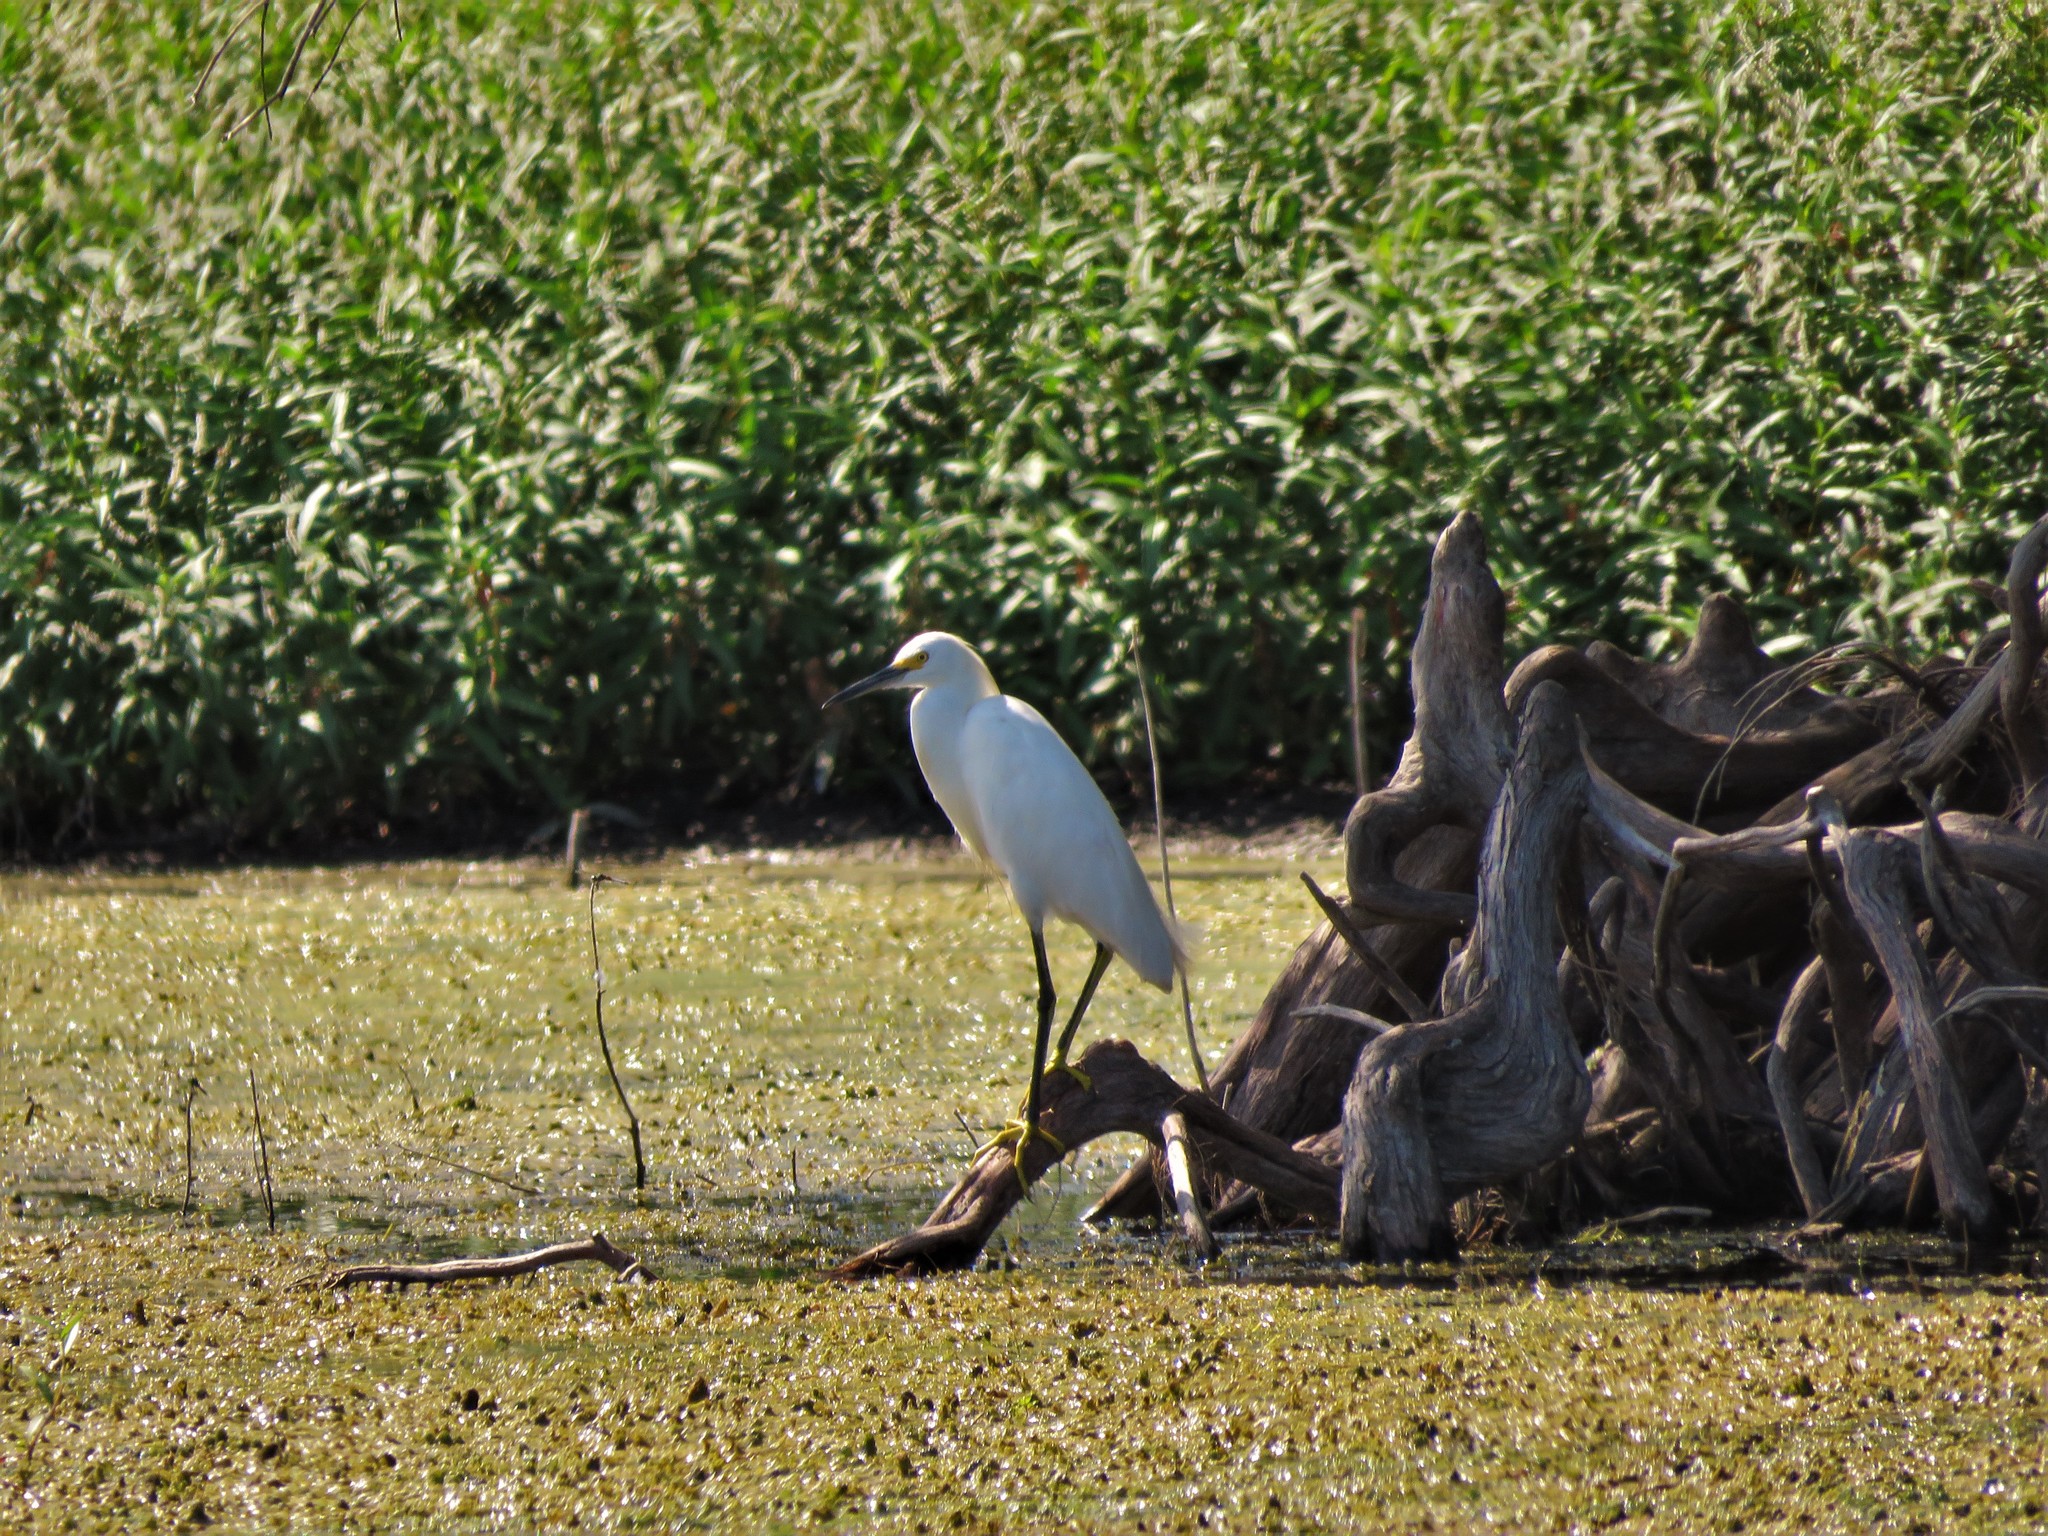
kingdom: Animalia
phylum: Chordata
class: Aves
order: Pelecaniformes
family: Ardeidae
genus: Egretta
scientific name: Egretta thula
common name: Snowy egret
